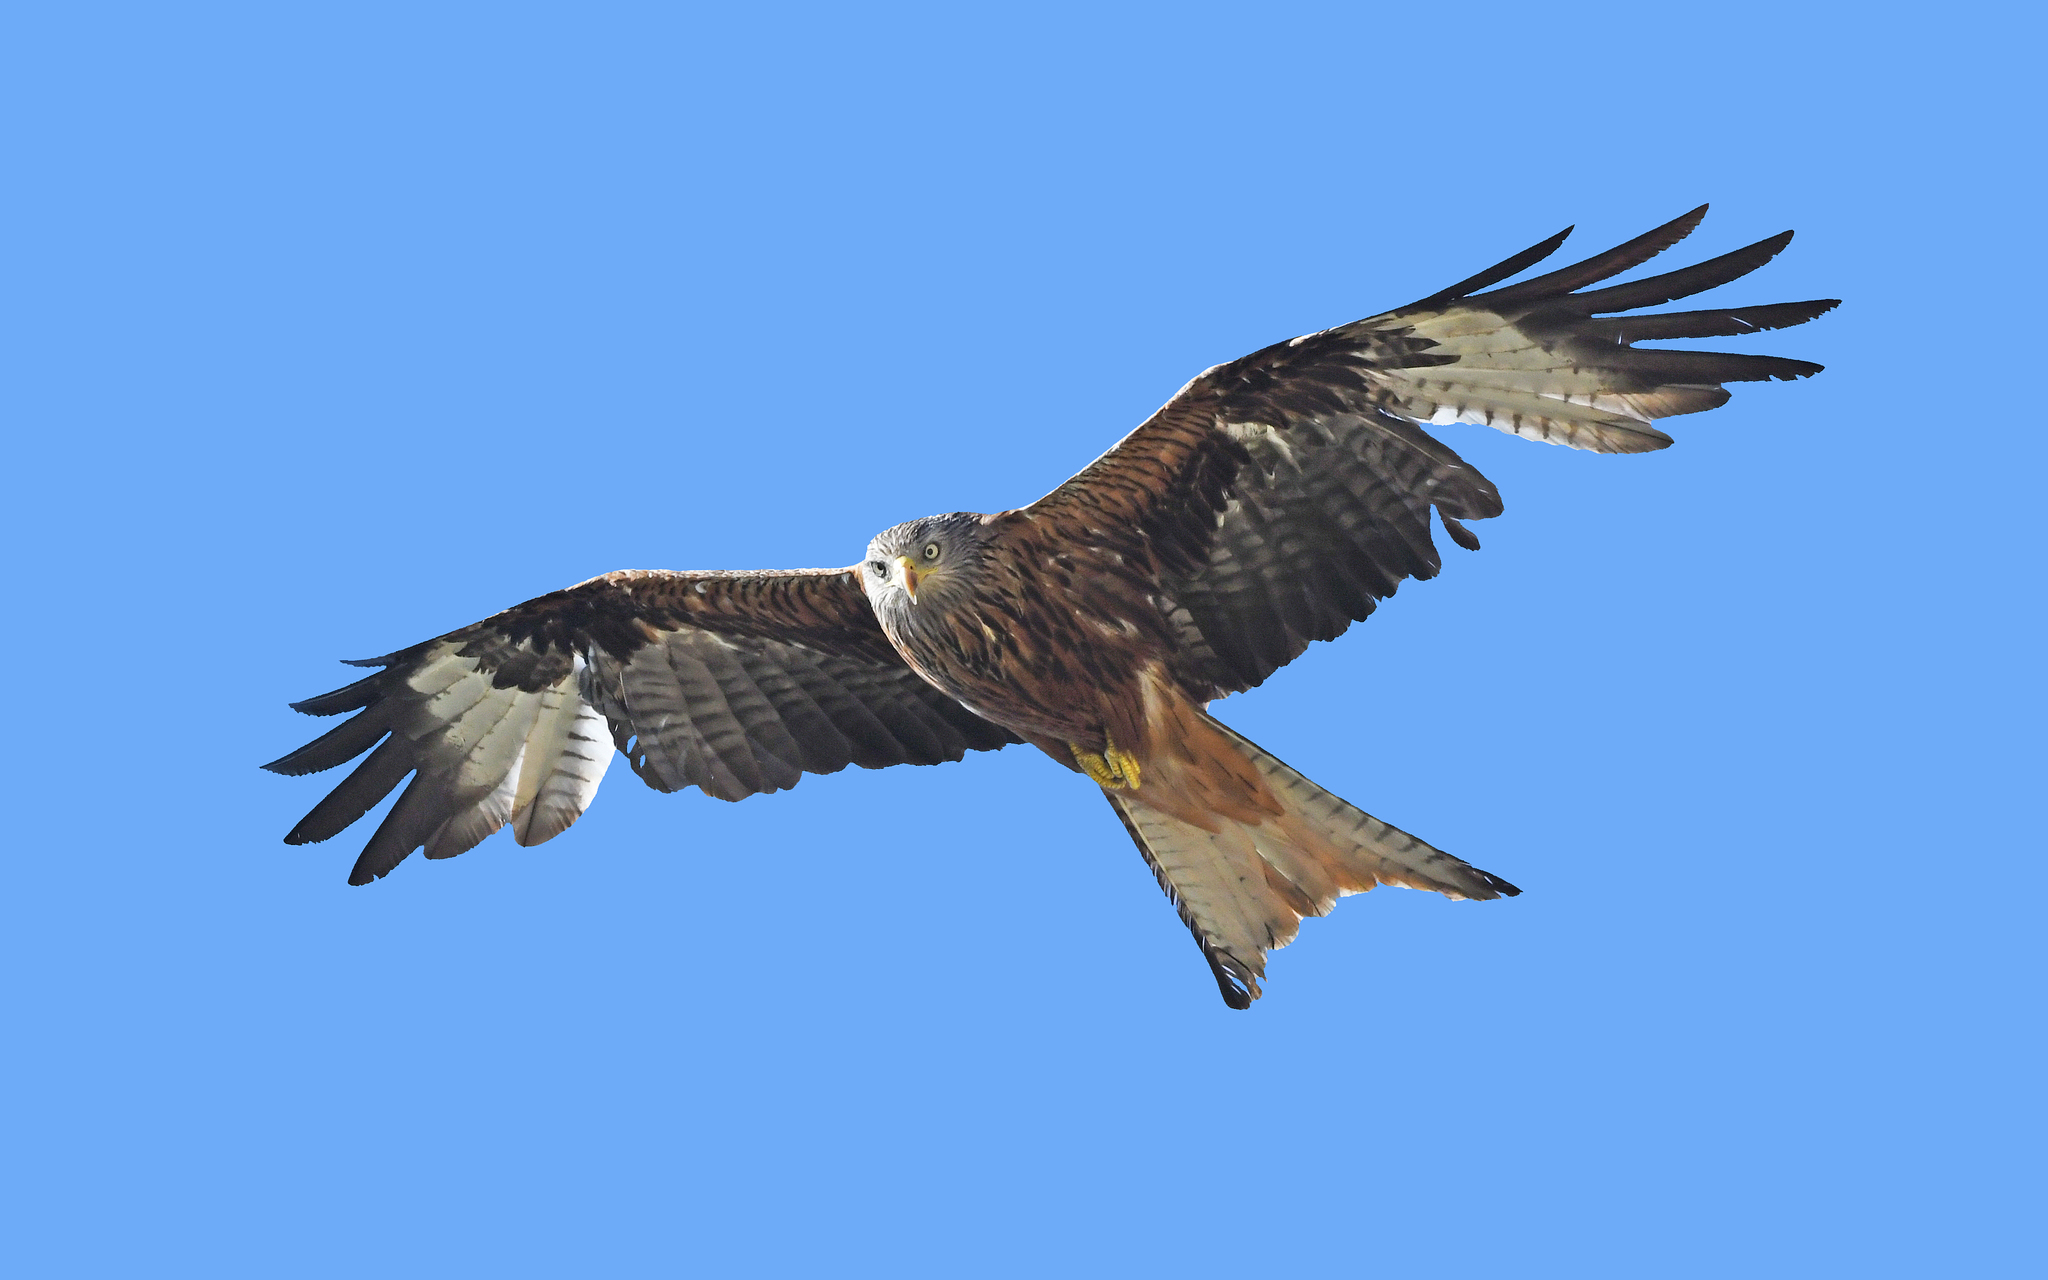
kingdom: Animalia
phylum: Chordata
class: Aves
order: Accipitriformes
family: Accipitridae
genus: Milvus
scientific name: Milvus milvus
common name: Red kite
